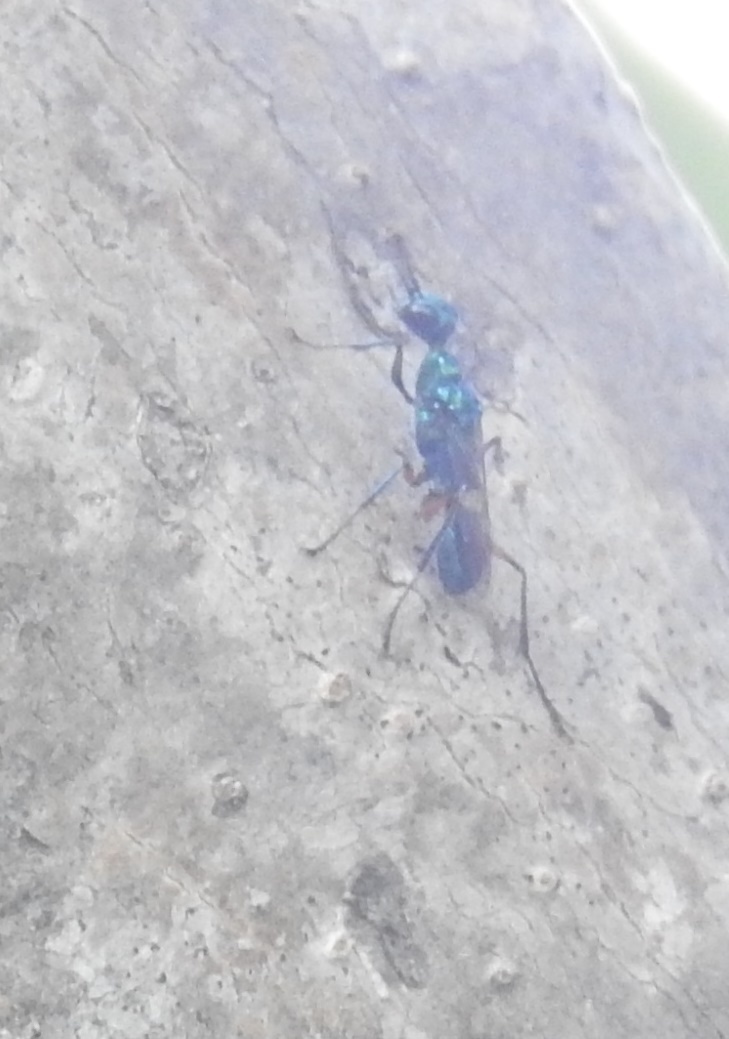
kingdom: Animalia
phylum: Arthropoda
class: Insecta
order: Hymenoptera
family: Ampulicidae
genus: Ampulex
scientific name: Ampulex compressa
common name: Emerald cockroach wasp
